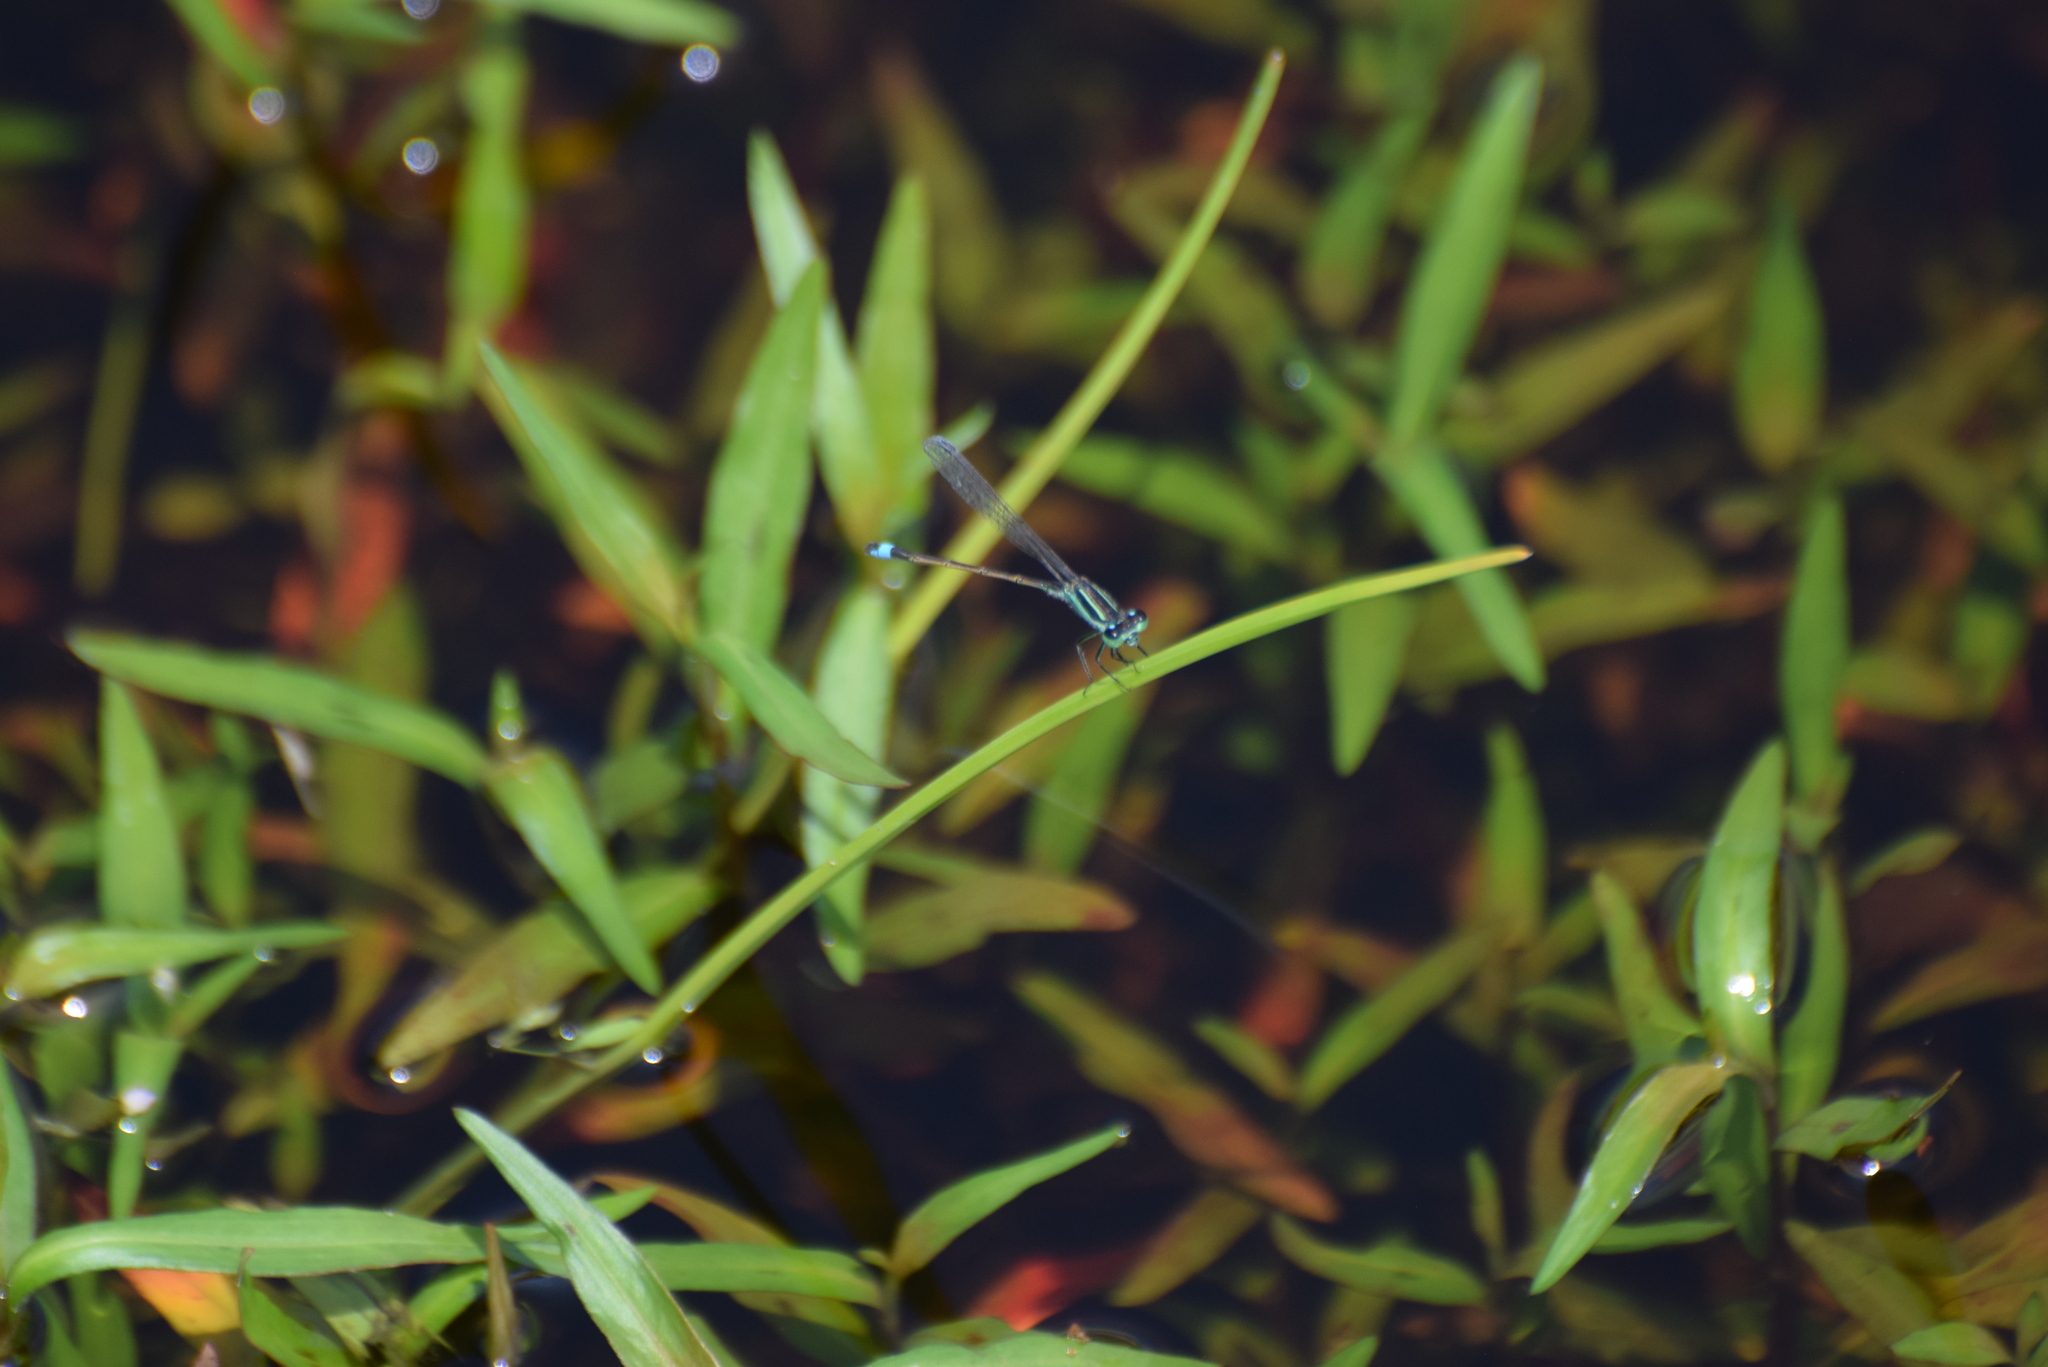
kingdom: Animalia
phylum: Arthropoda
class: Insecta
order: Odonata
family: Coenagrionidae
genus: Ischnura
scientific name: Ischnura ramburii
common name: Rambur's forktail
